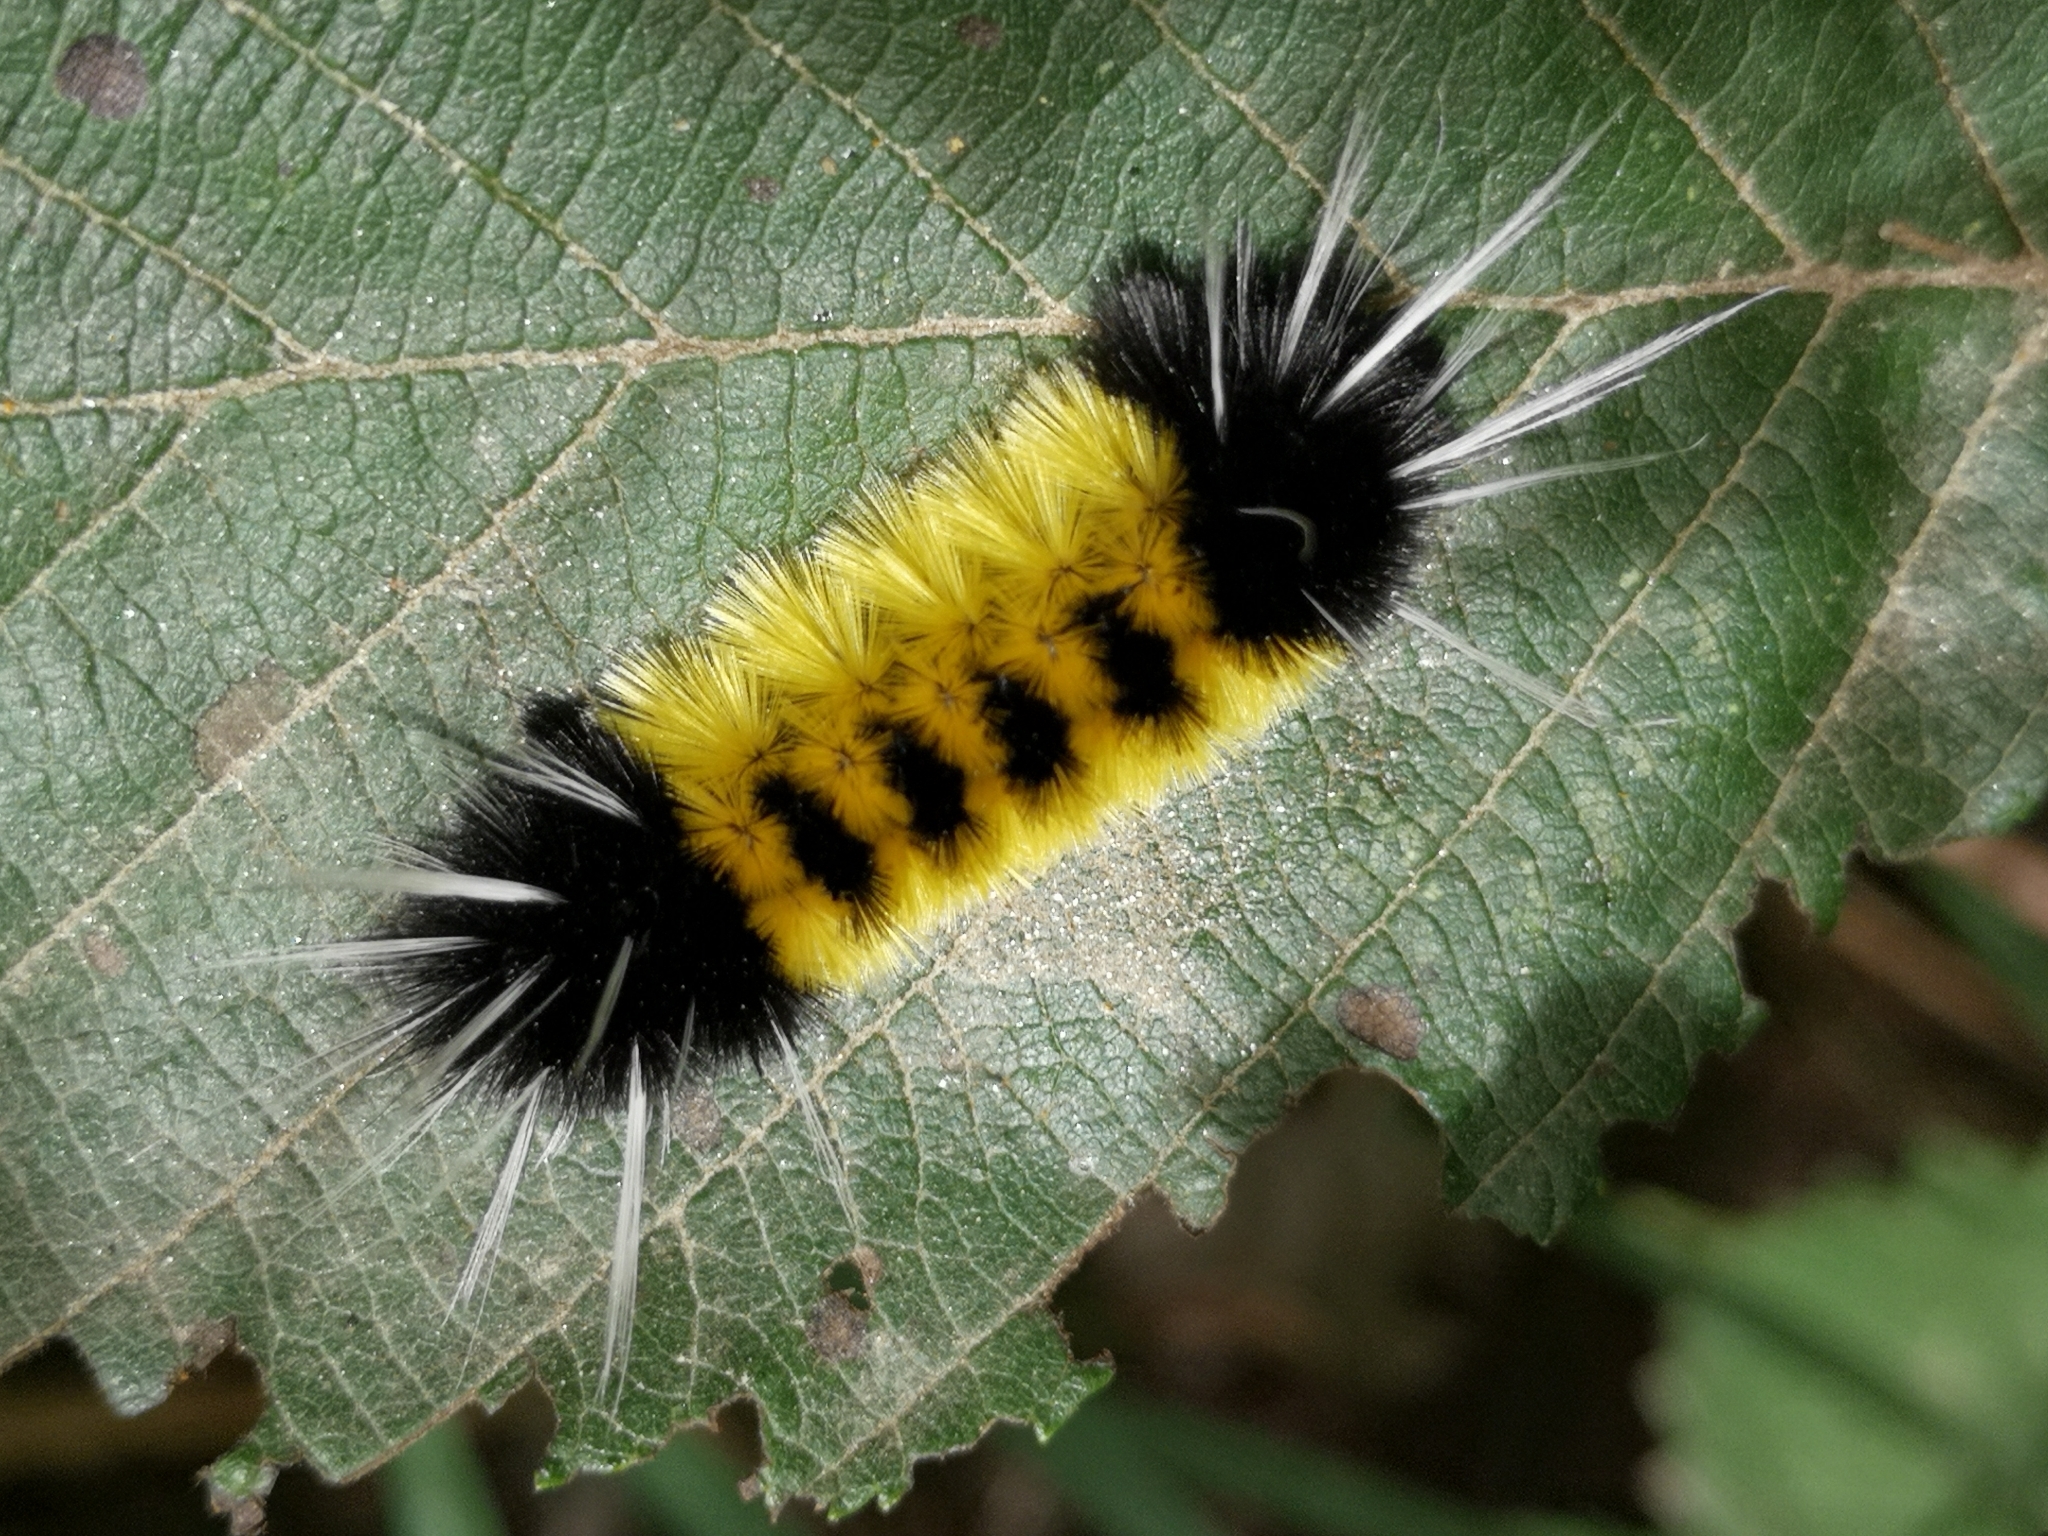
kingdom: Animalia
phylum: Arthropoda
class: Insecta
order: Lepidoptera
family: Erebidae
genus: Lophocampa
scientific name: Lophocampa maculata
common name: Spotted tussock moth
